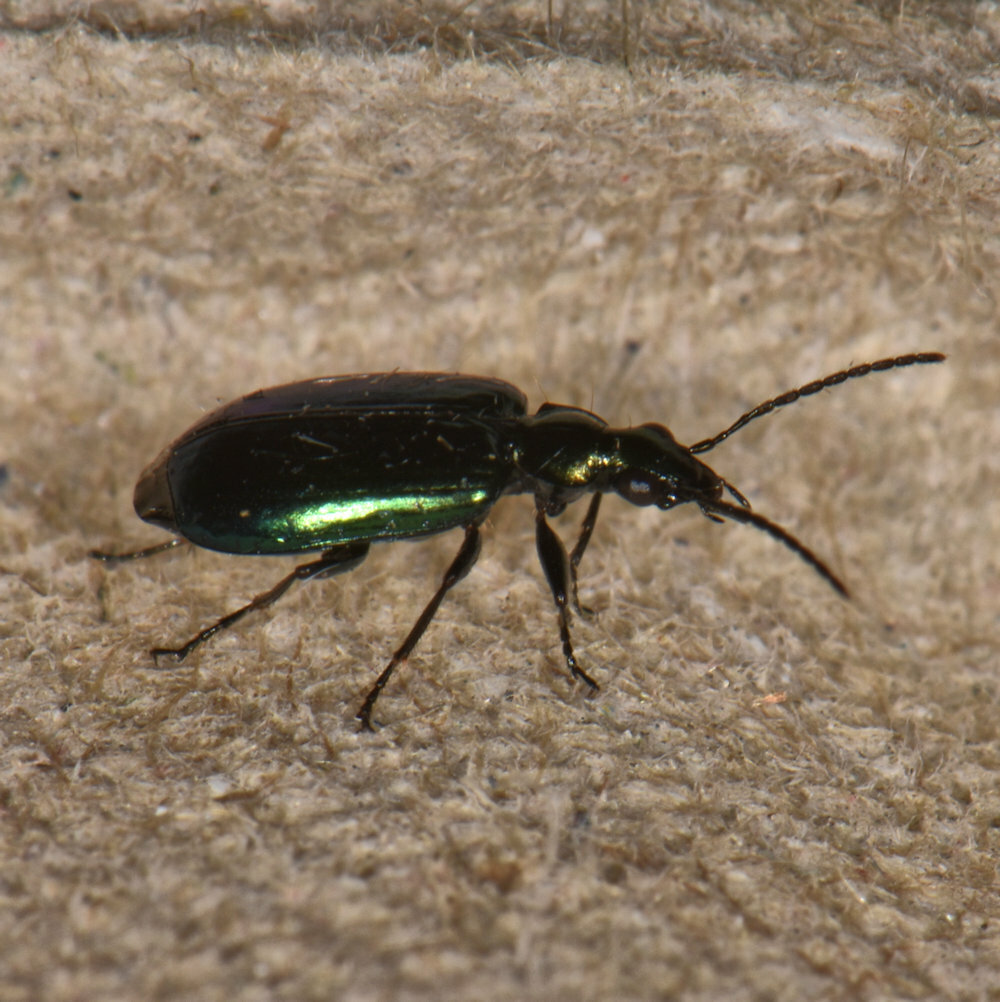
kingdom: Animalia
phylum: Arthropoda
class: Insecta
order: Coleoptera
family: Carabidae
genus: Lebia
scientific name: Lebia viridis
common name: Flower lebia beetle
